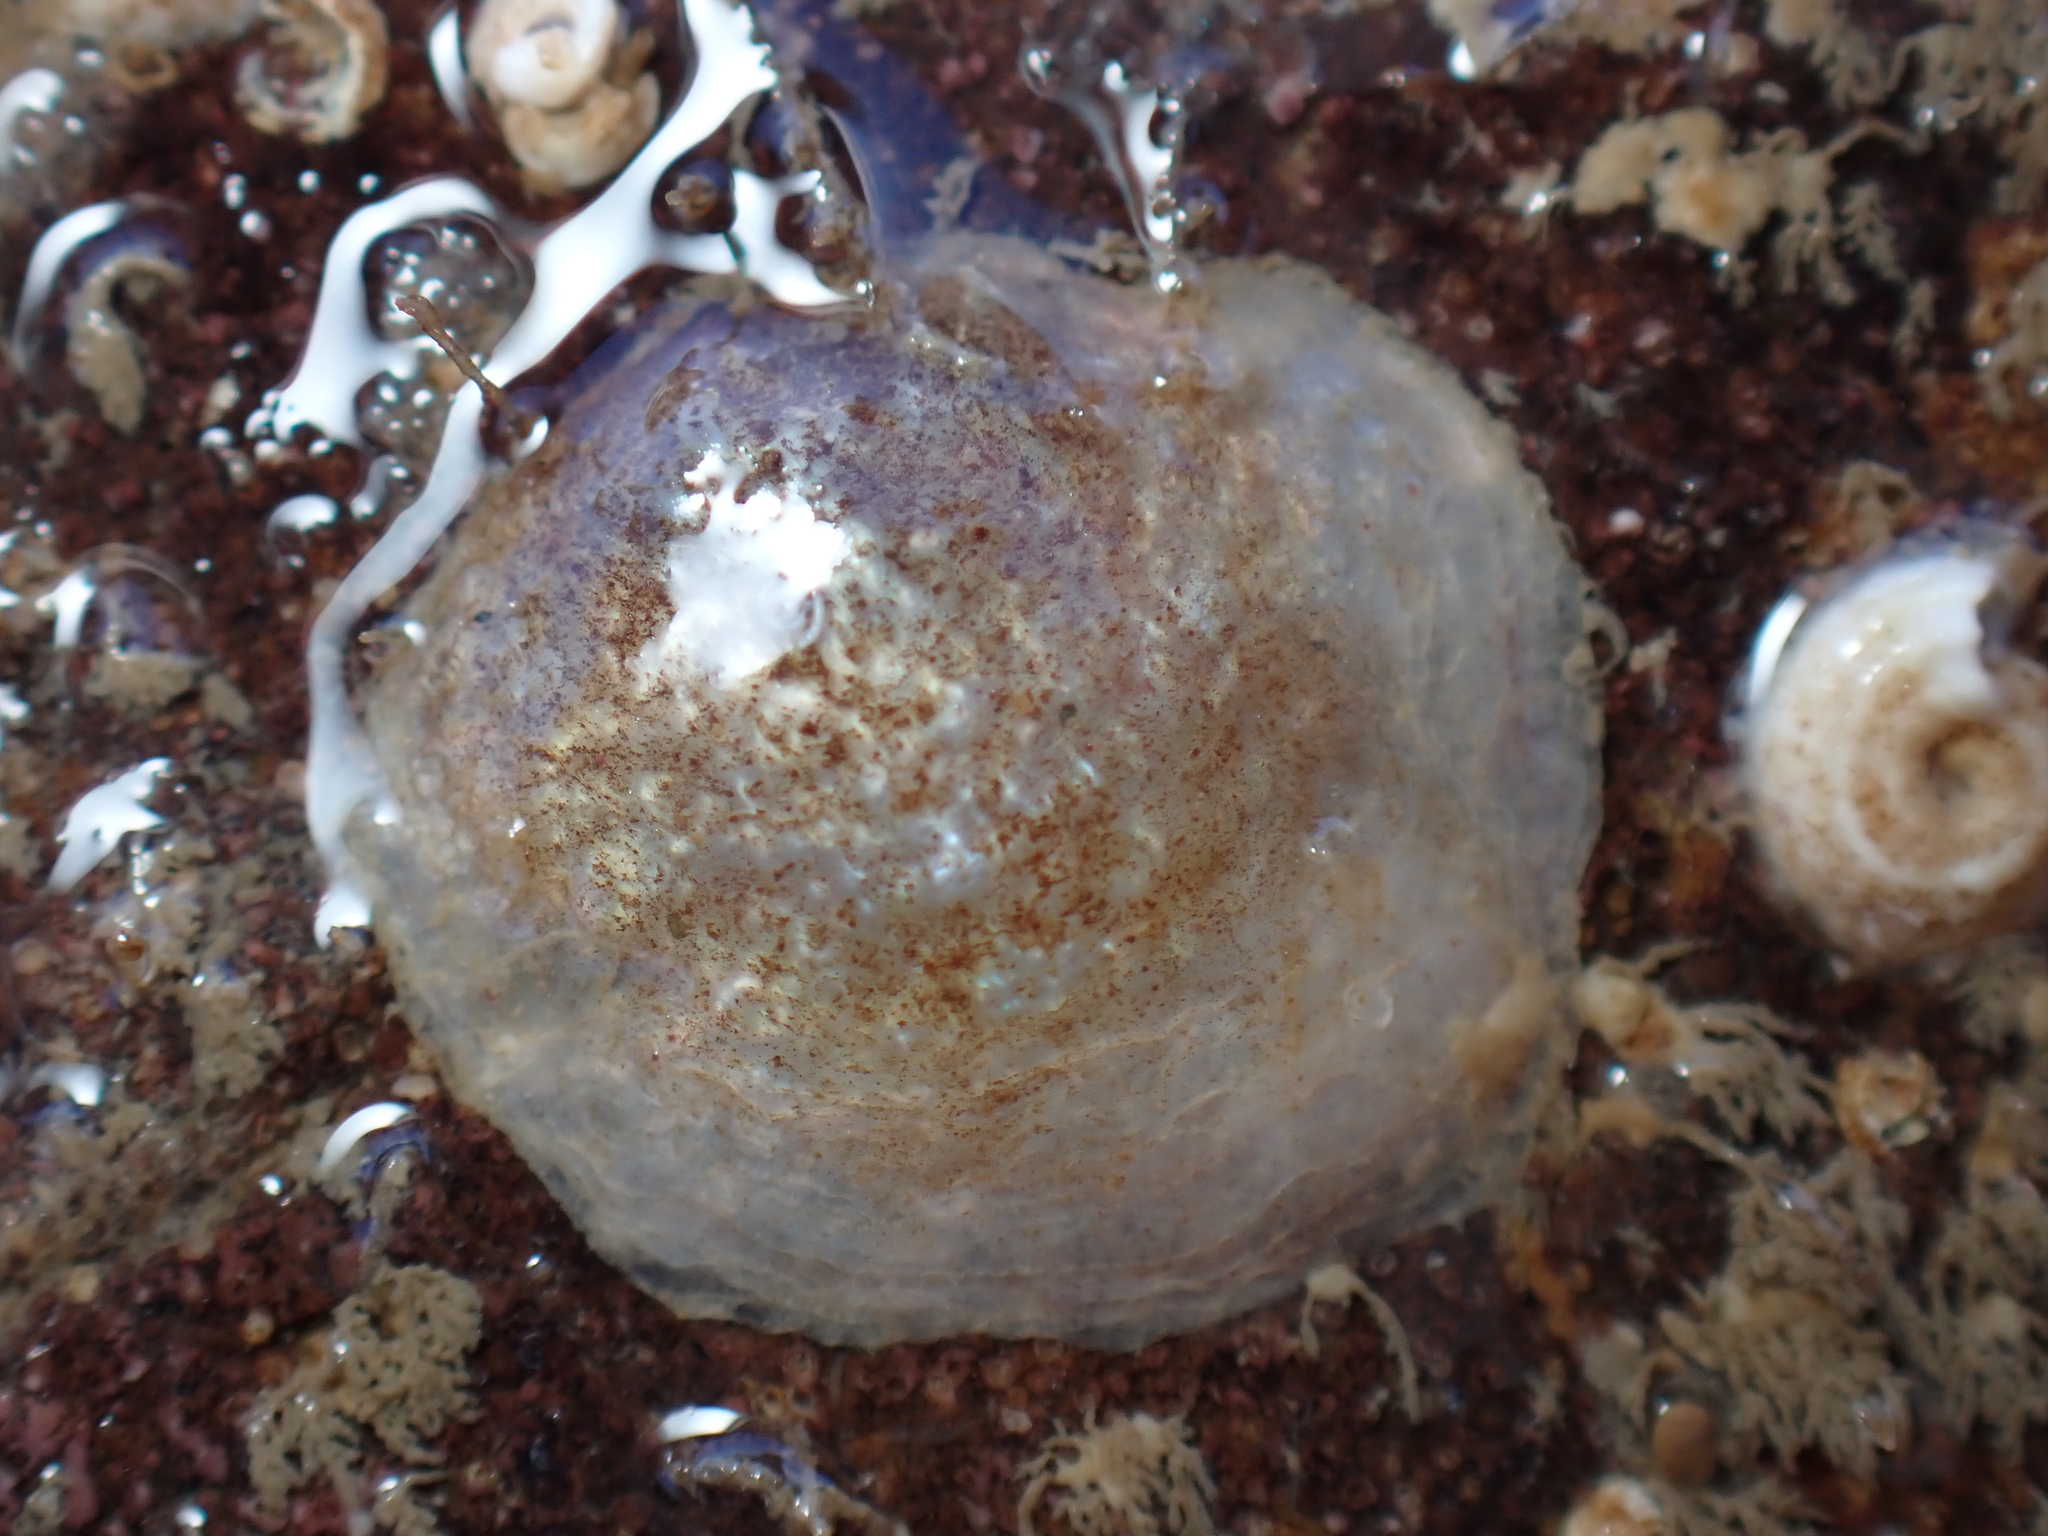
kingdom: Animalia
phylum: Mollusca
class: Bivalvia
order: Pectinida
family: Anomiidae
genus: Anomia
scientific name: Anomia ephippium
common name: Saddle oyster
